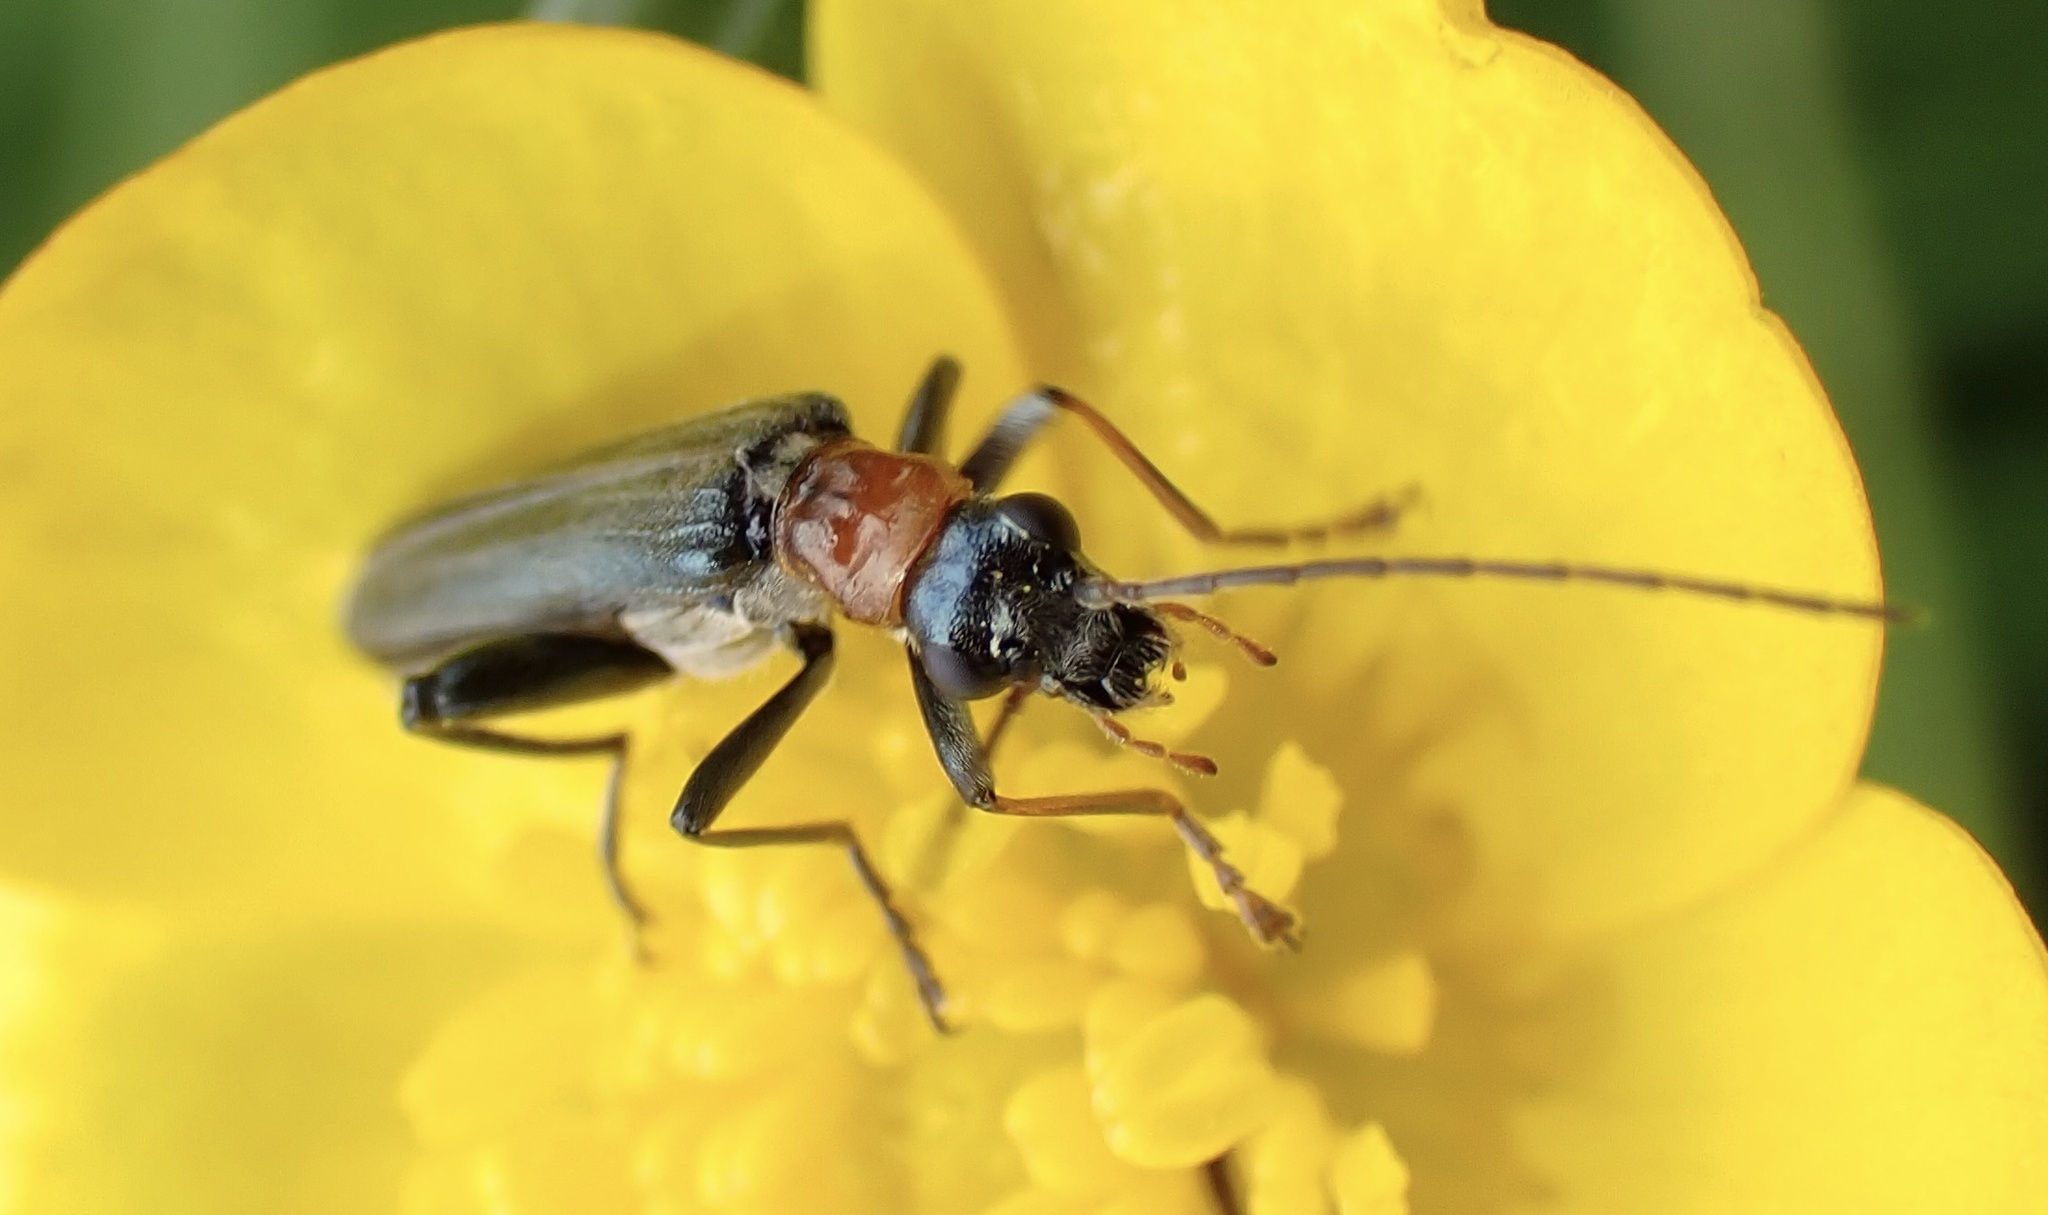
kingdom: Animalia
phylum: Arthropoda
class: Insecta
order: Coleoptera
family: Oedemeridae
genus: Oedemera
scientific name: Oedemera croceicollis
